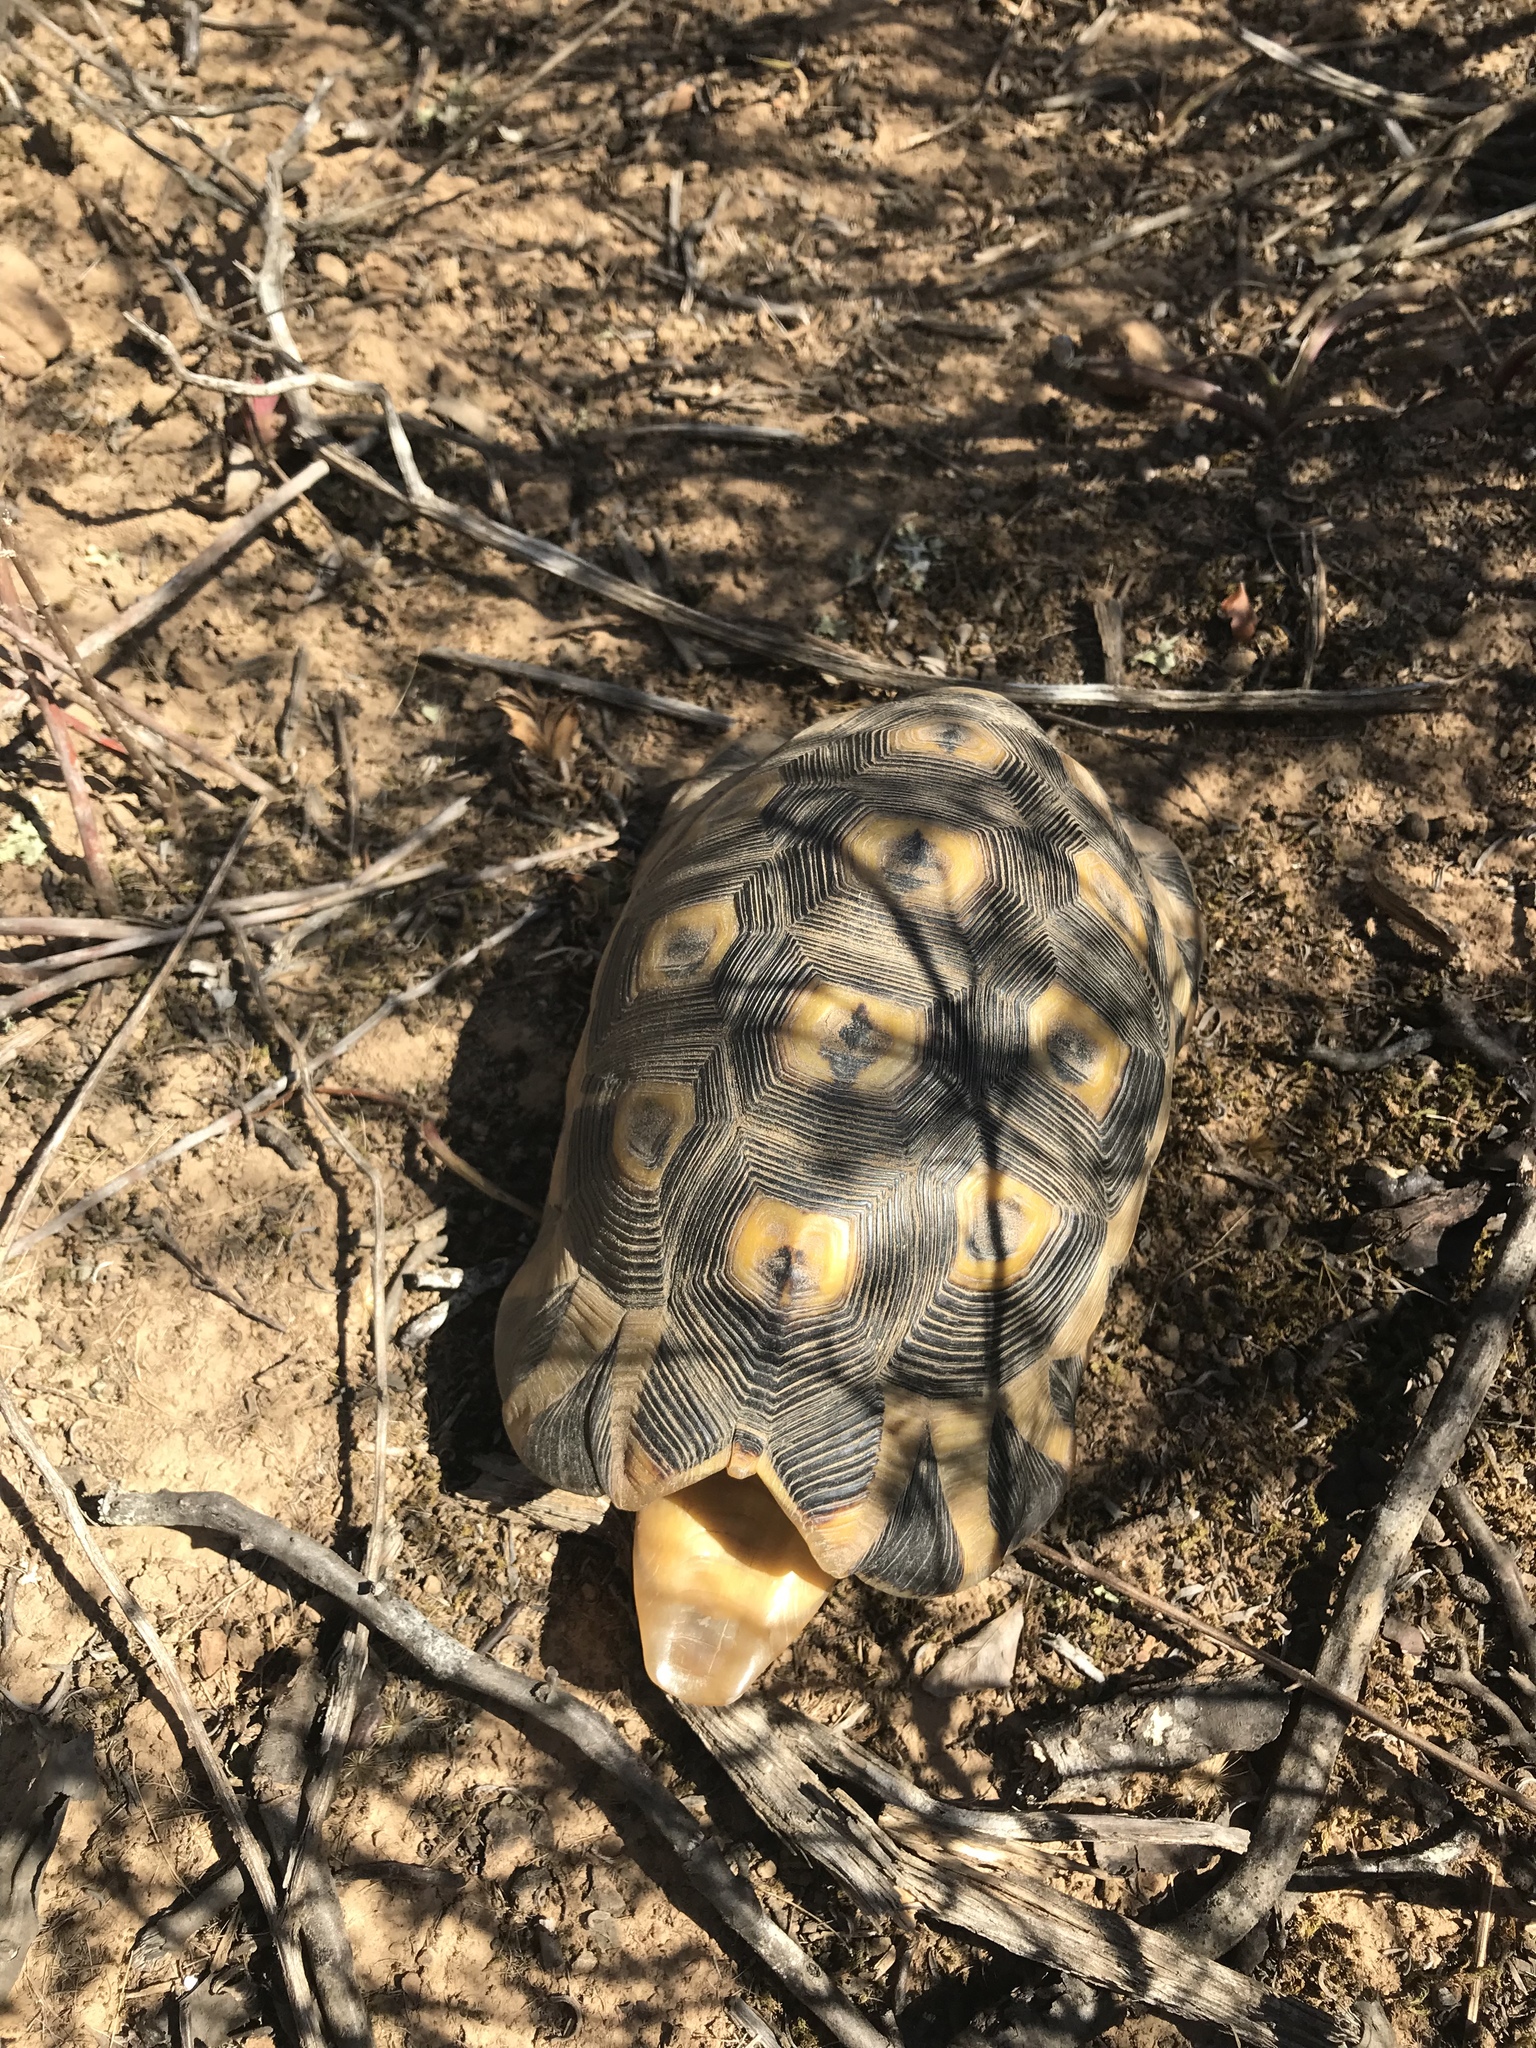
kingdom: Animalia
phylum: Chordata
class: Testudines
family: Testudinidae
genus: Chersina
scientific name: Chersina angulata
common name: South african bowsprit tortoise
